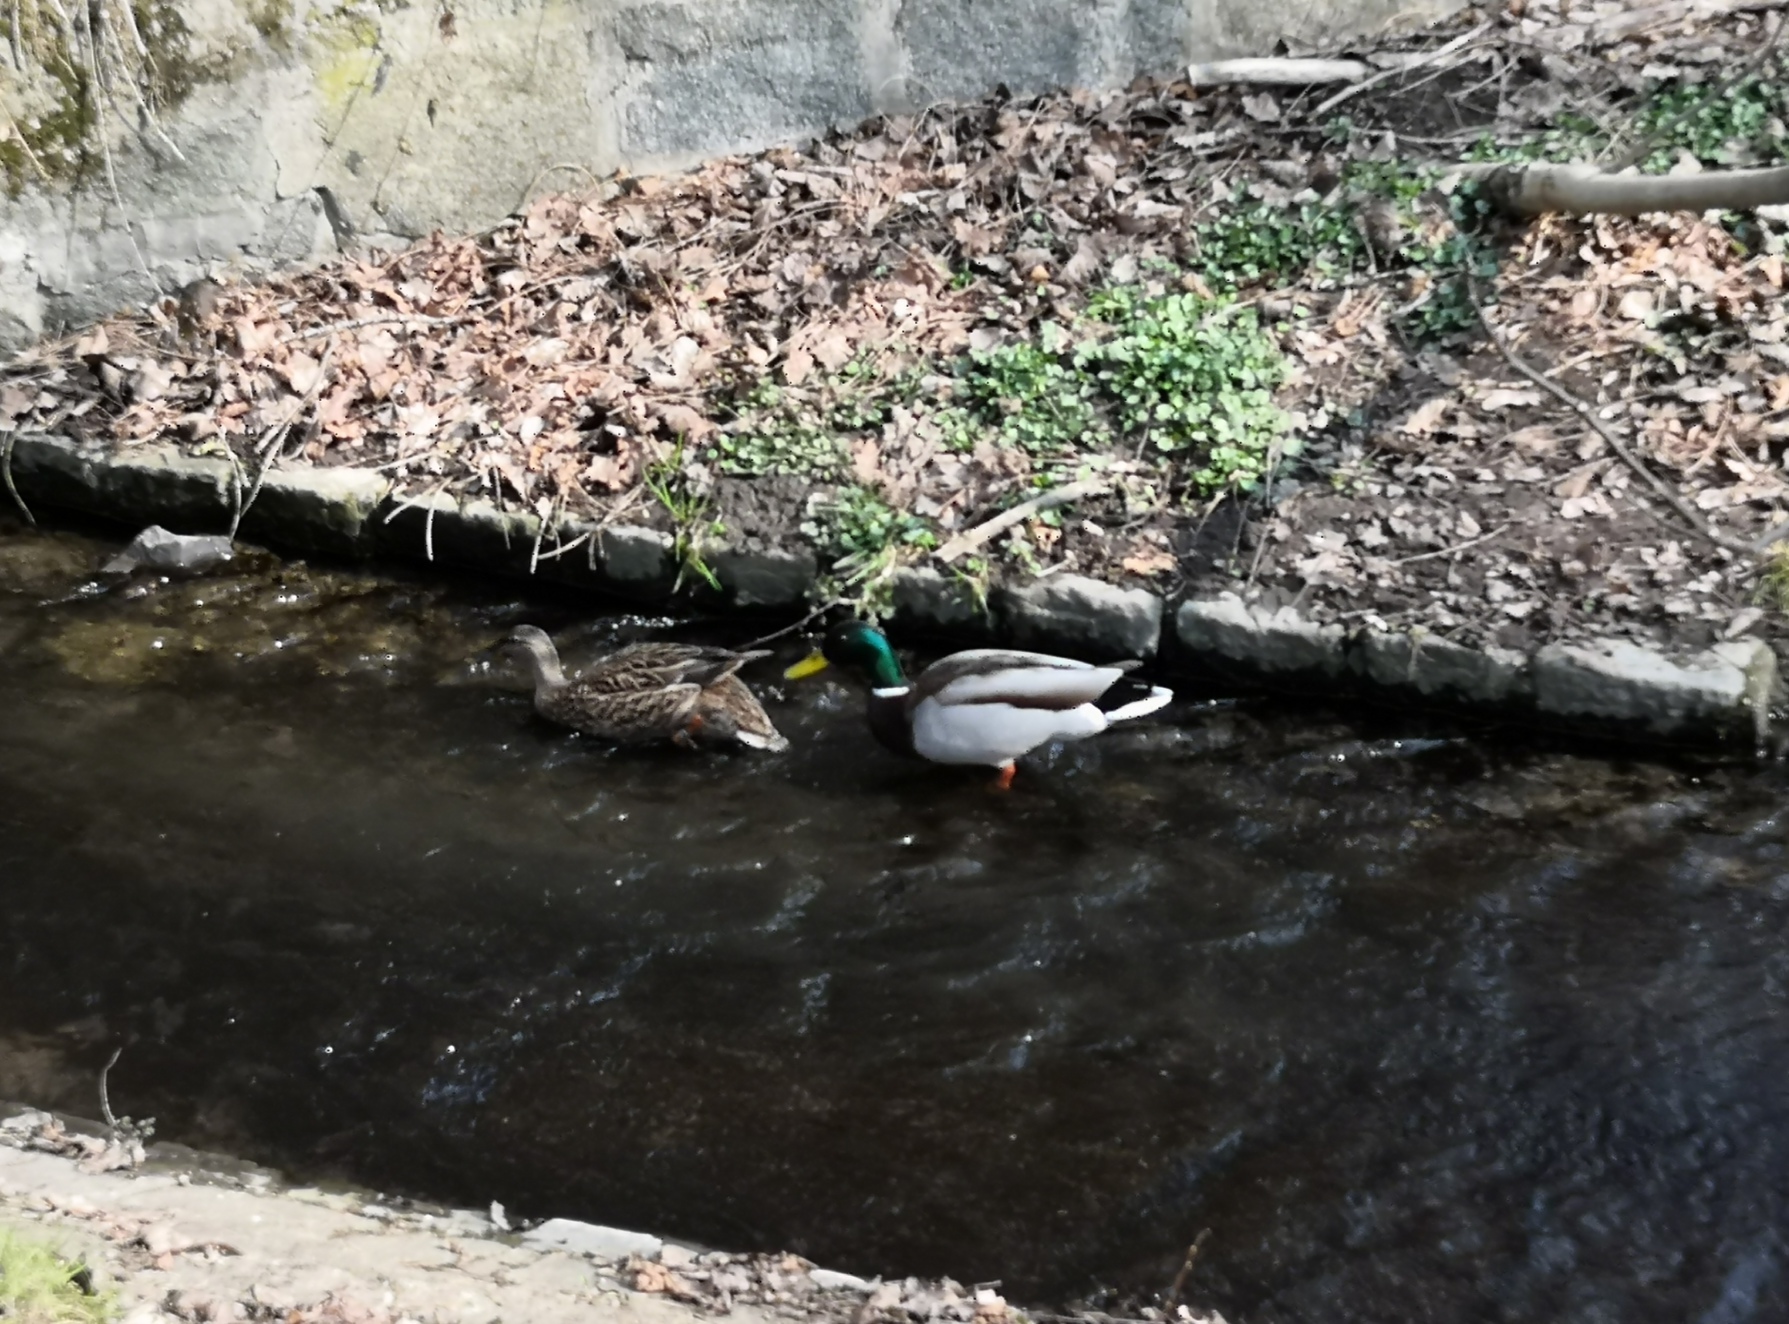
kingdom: Animalia
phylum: Chordata
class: Aves
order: Anseriformes
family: Anatidae
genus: Anas
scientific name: Anas platyrhynchos
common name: Mallard
